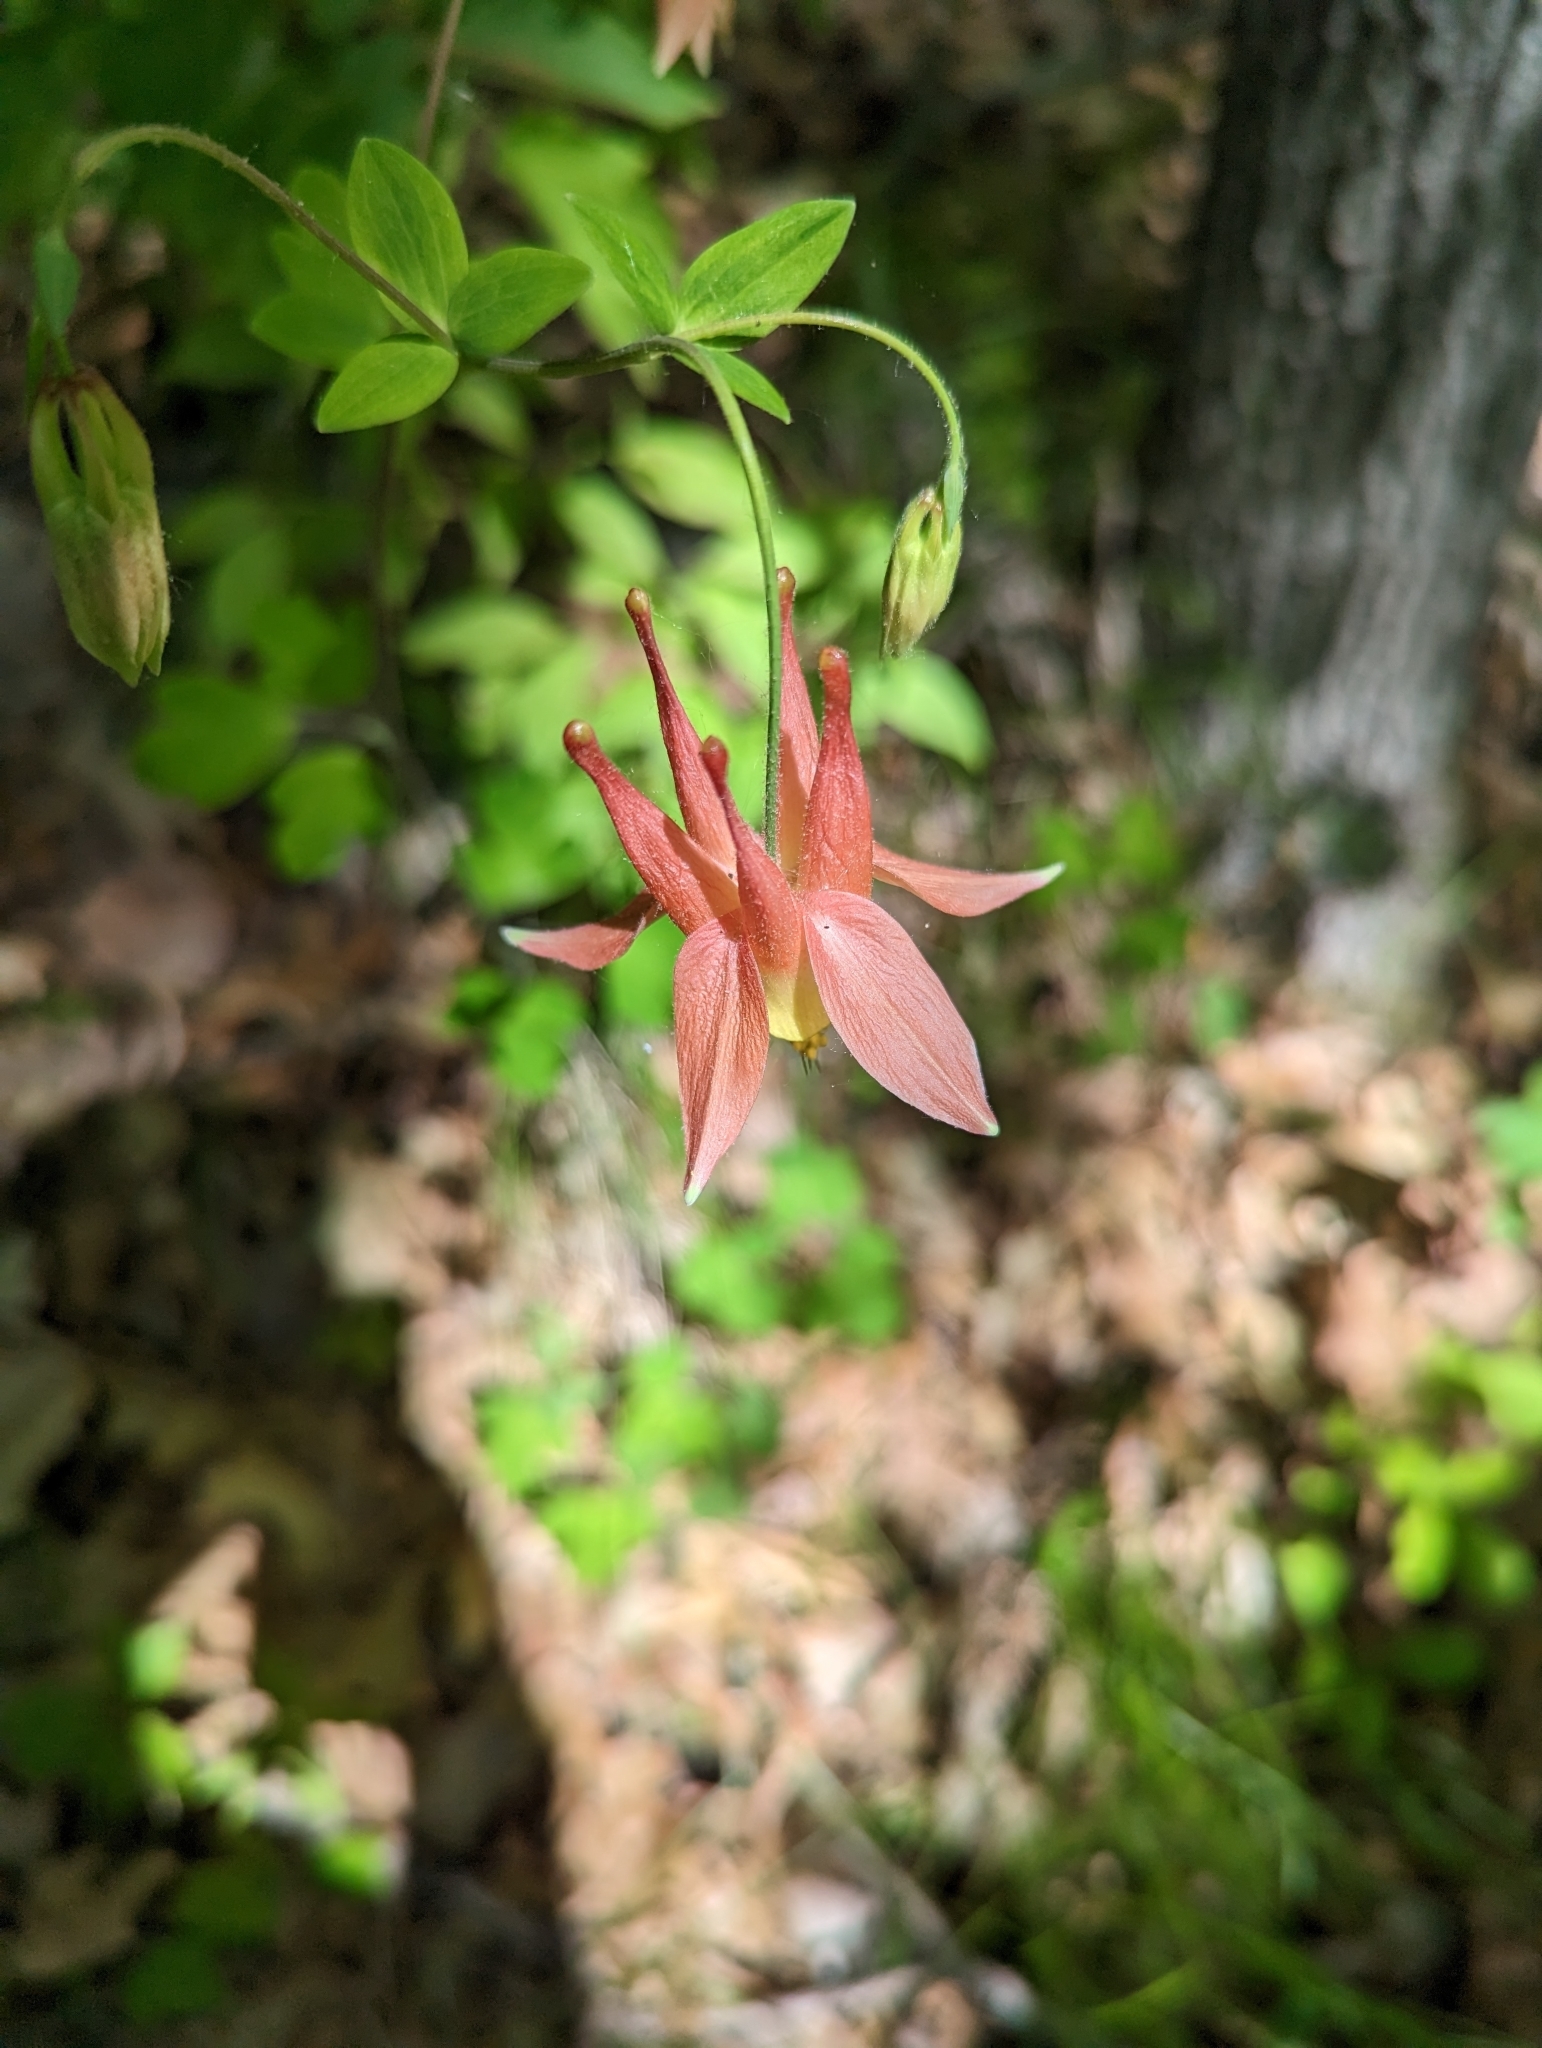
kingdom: Plantae
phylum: Tracheophyta
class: Magnoliopsida
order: Ranunculales
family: Ranunculaceae
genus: Aquilegia
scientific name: Aquilegia canadensis
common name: American columbine
